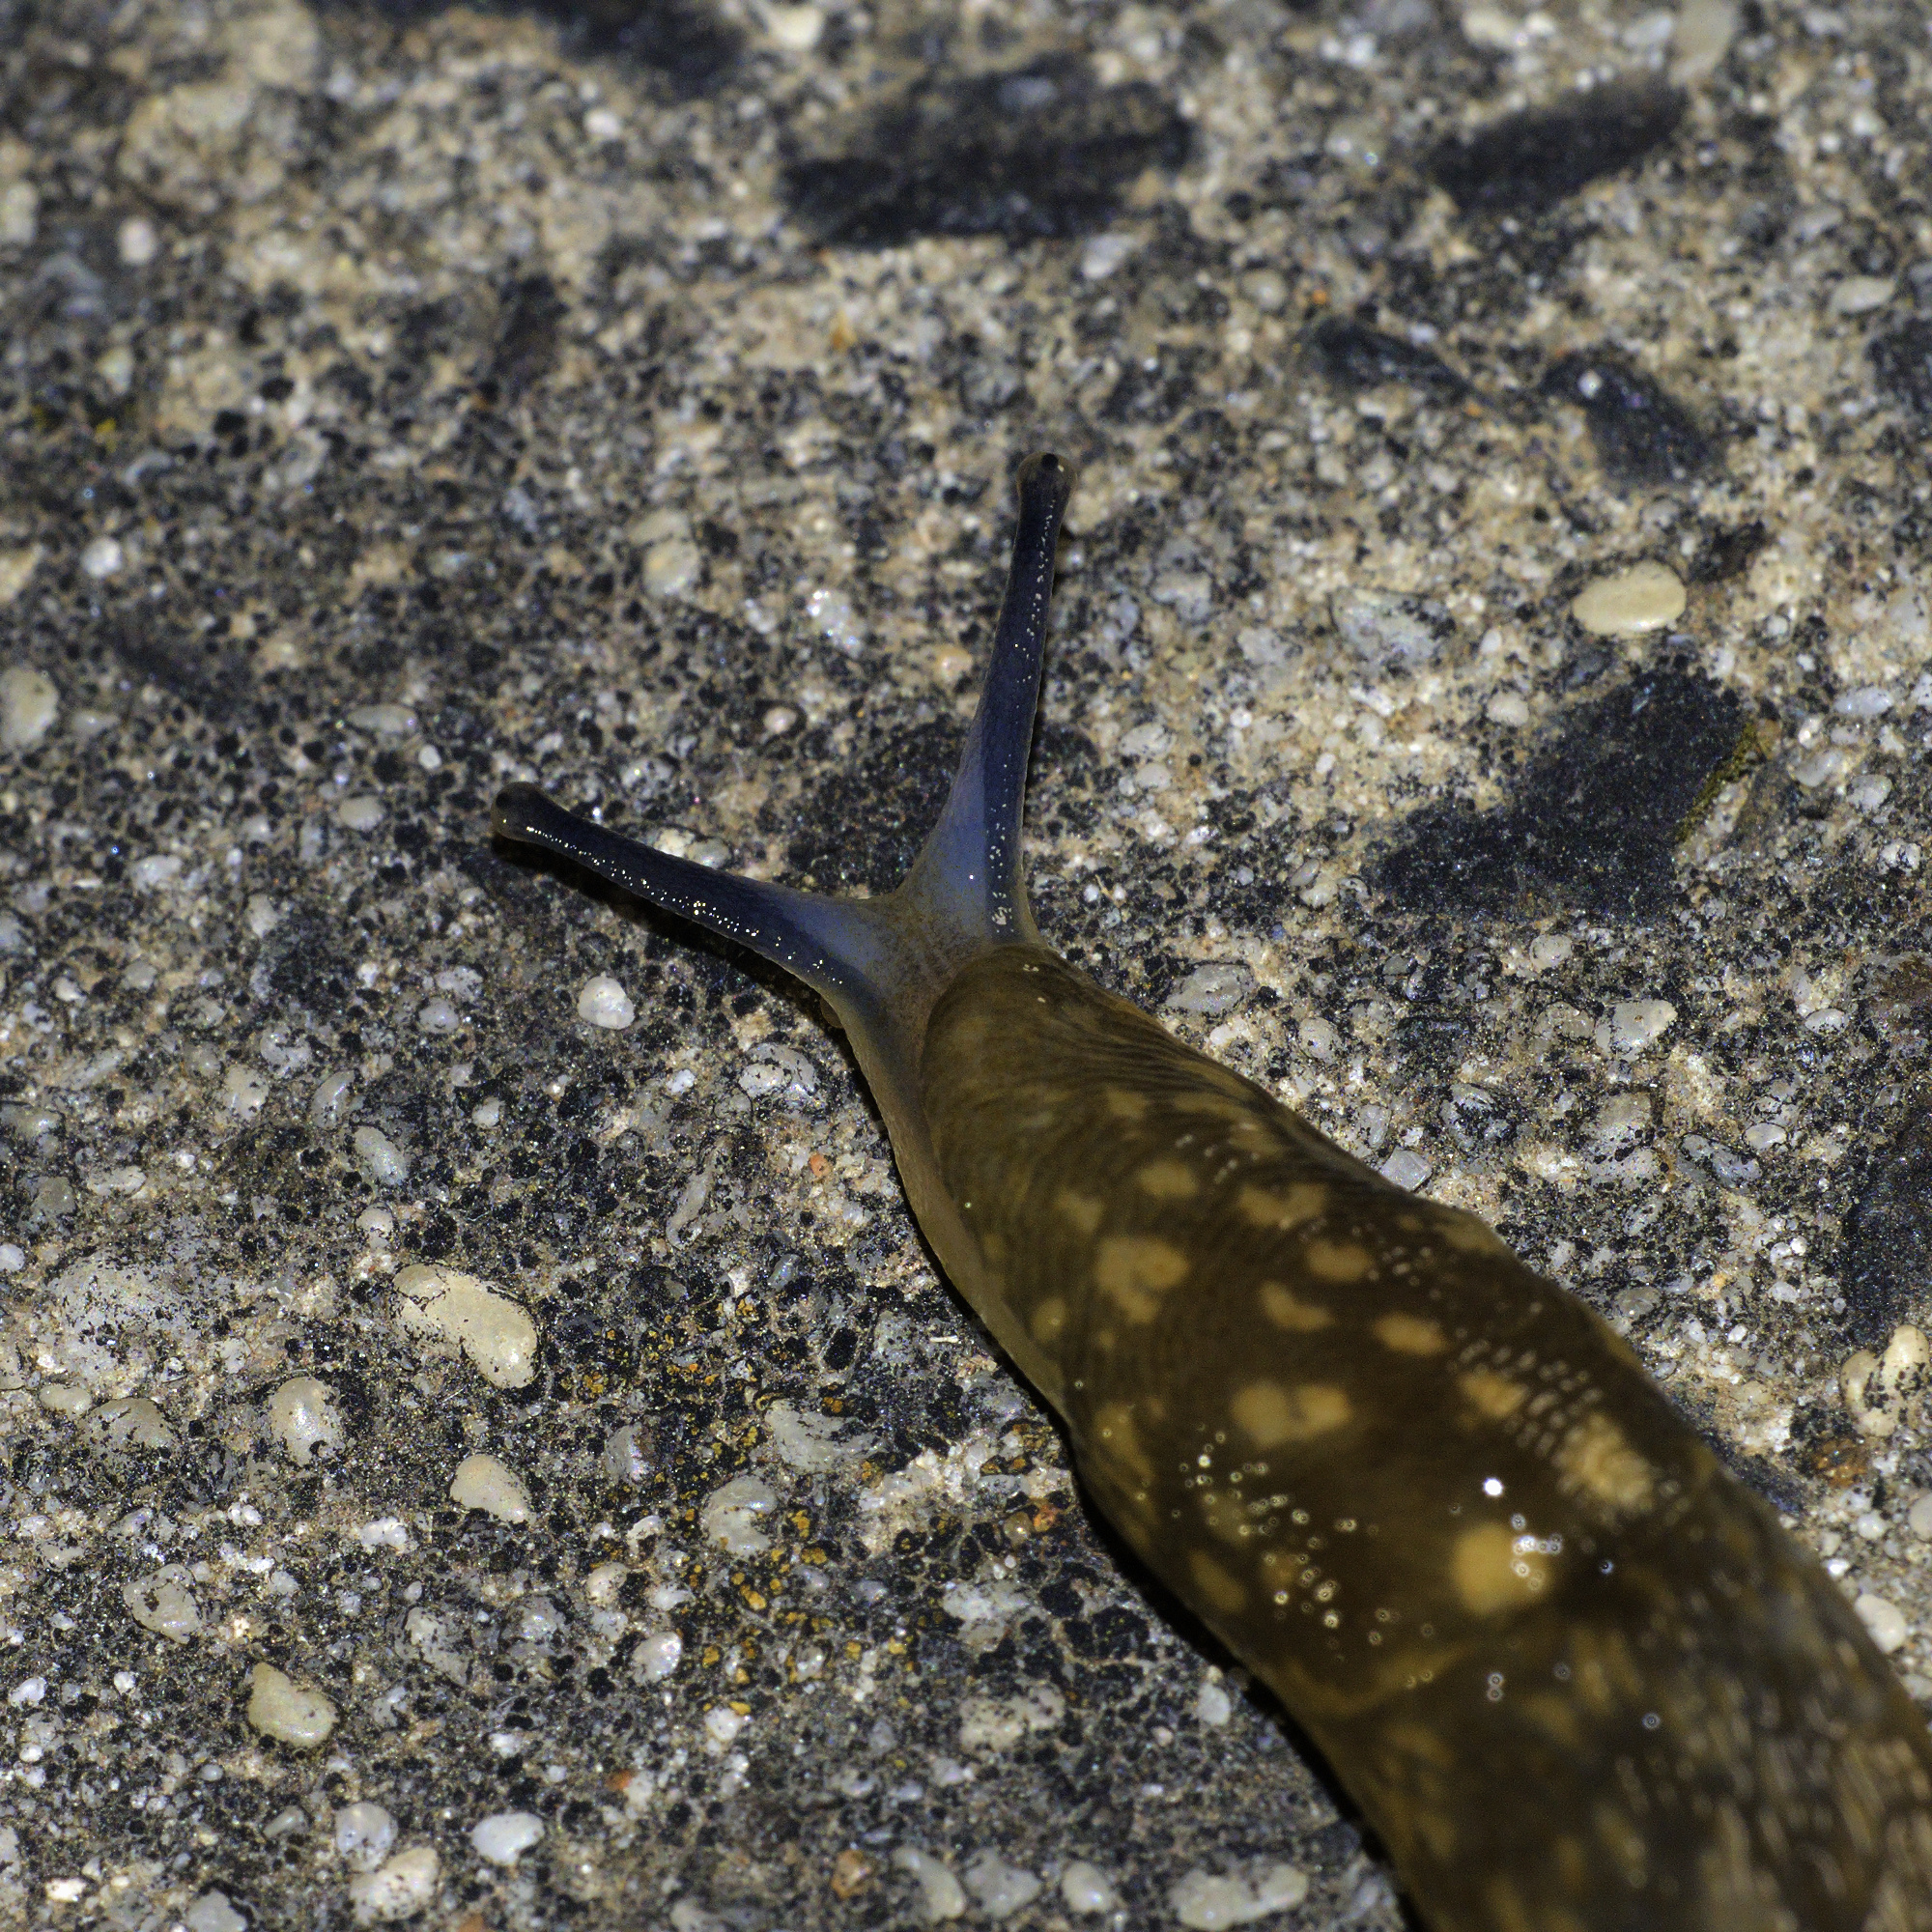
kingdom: Animalia
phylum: Mollusca
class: Gastropoda
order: Stylommatophora
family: Limacidae
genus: Limacus
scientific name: Limacus flavus
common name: Yellow gardenslug
